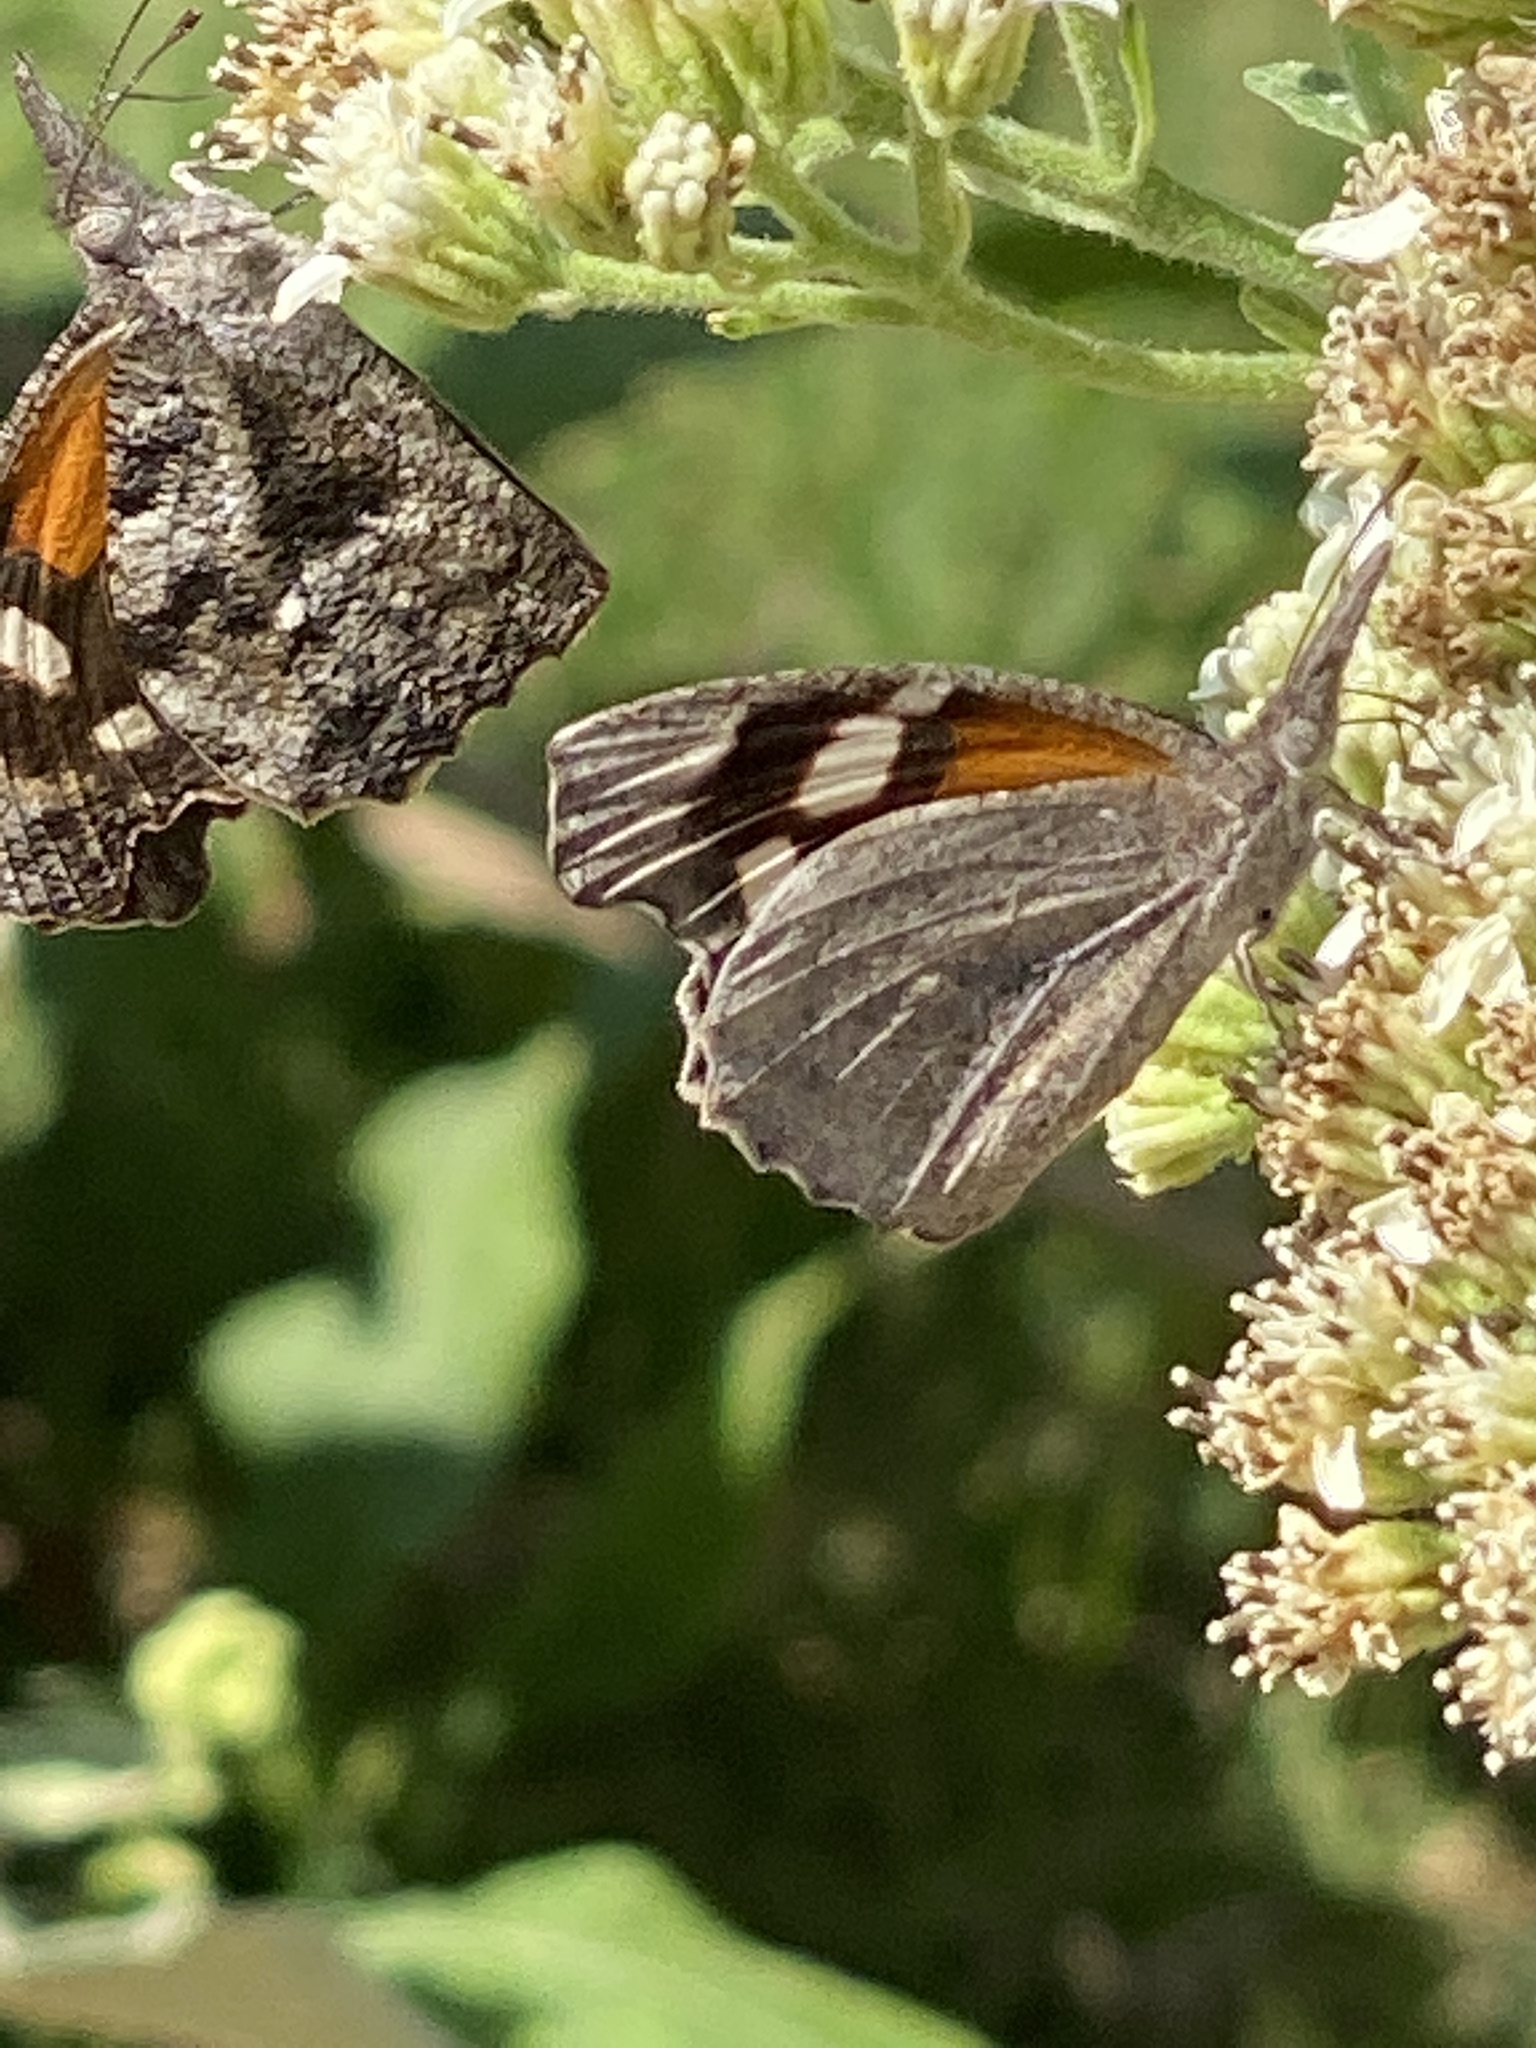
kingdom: Animalia
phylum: Arthropoda
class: Insecta
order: Lepidoptera
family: Nymphalidae
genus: Libytheana
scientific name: Libytheana carinenta
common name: American snout
